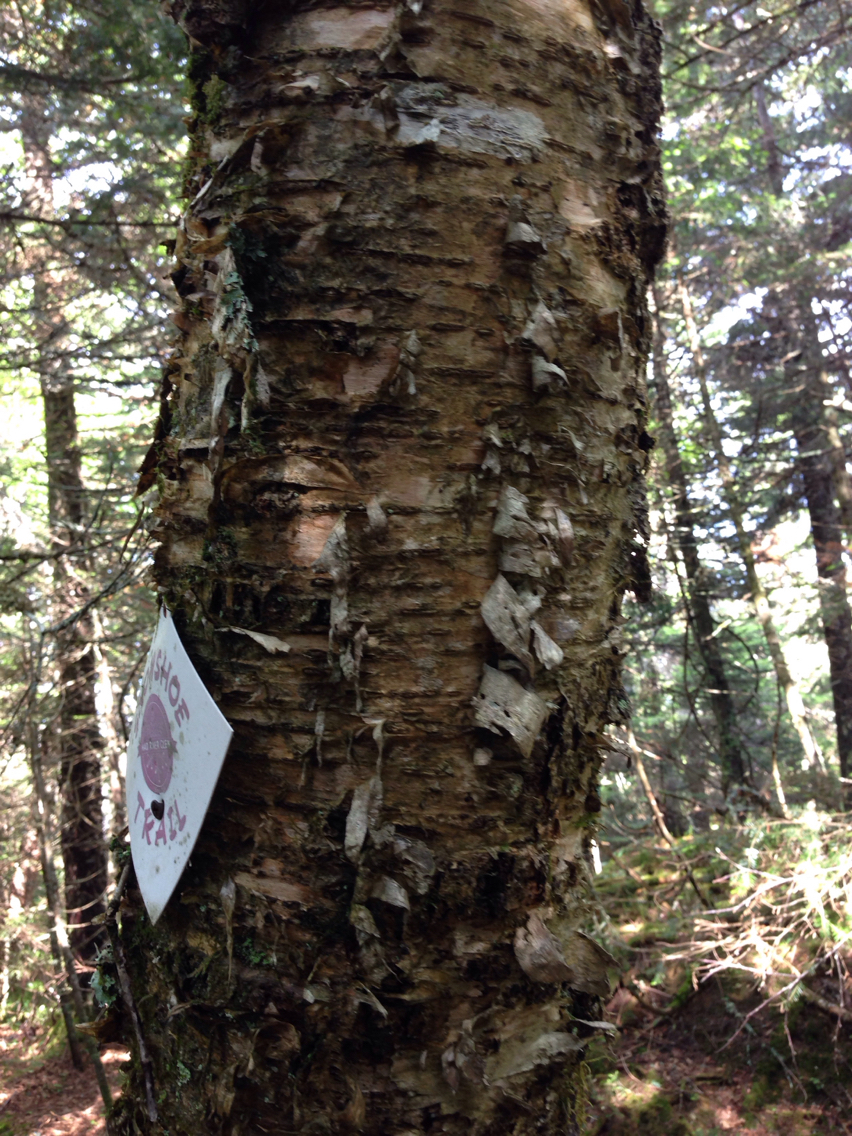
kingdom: Plantae
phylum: Tracheophyta
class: Magnoliopsida
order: Fagales
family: Betulaceae
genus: Betula
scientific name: Betula alleghaniensis
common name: Yellow birch
